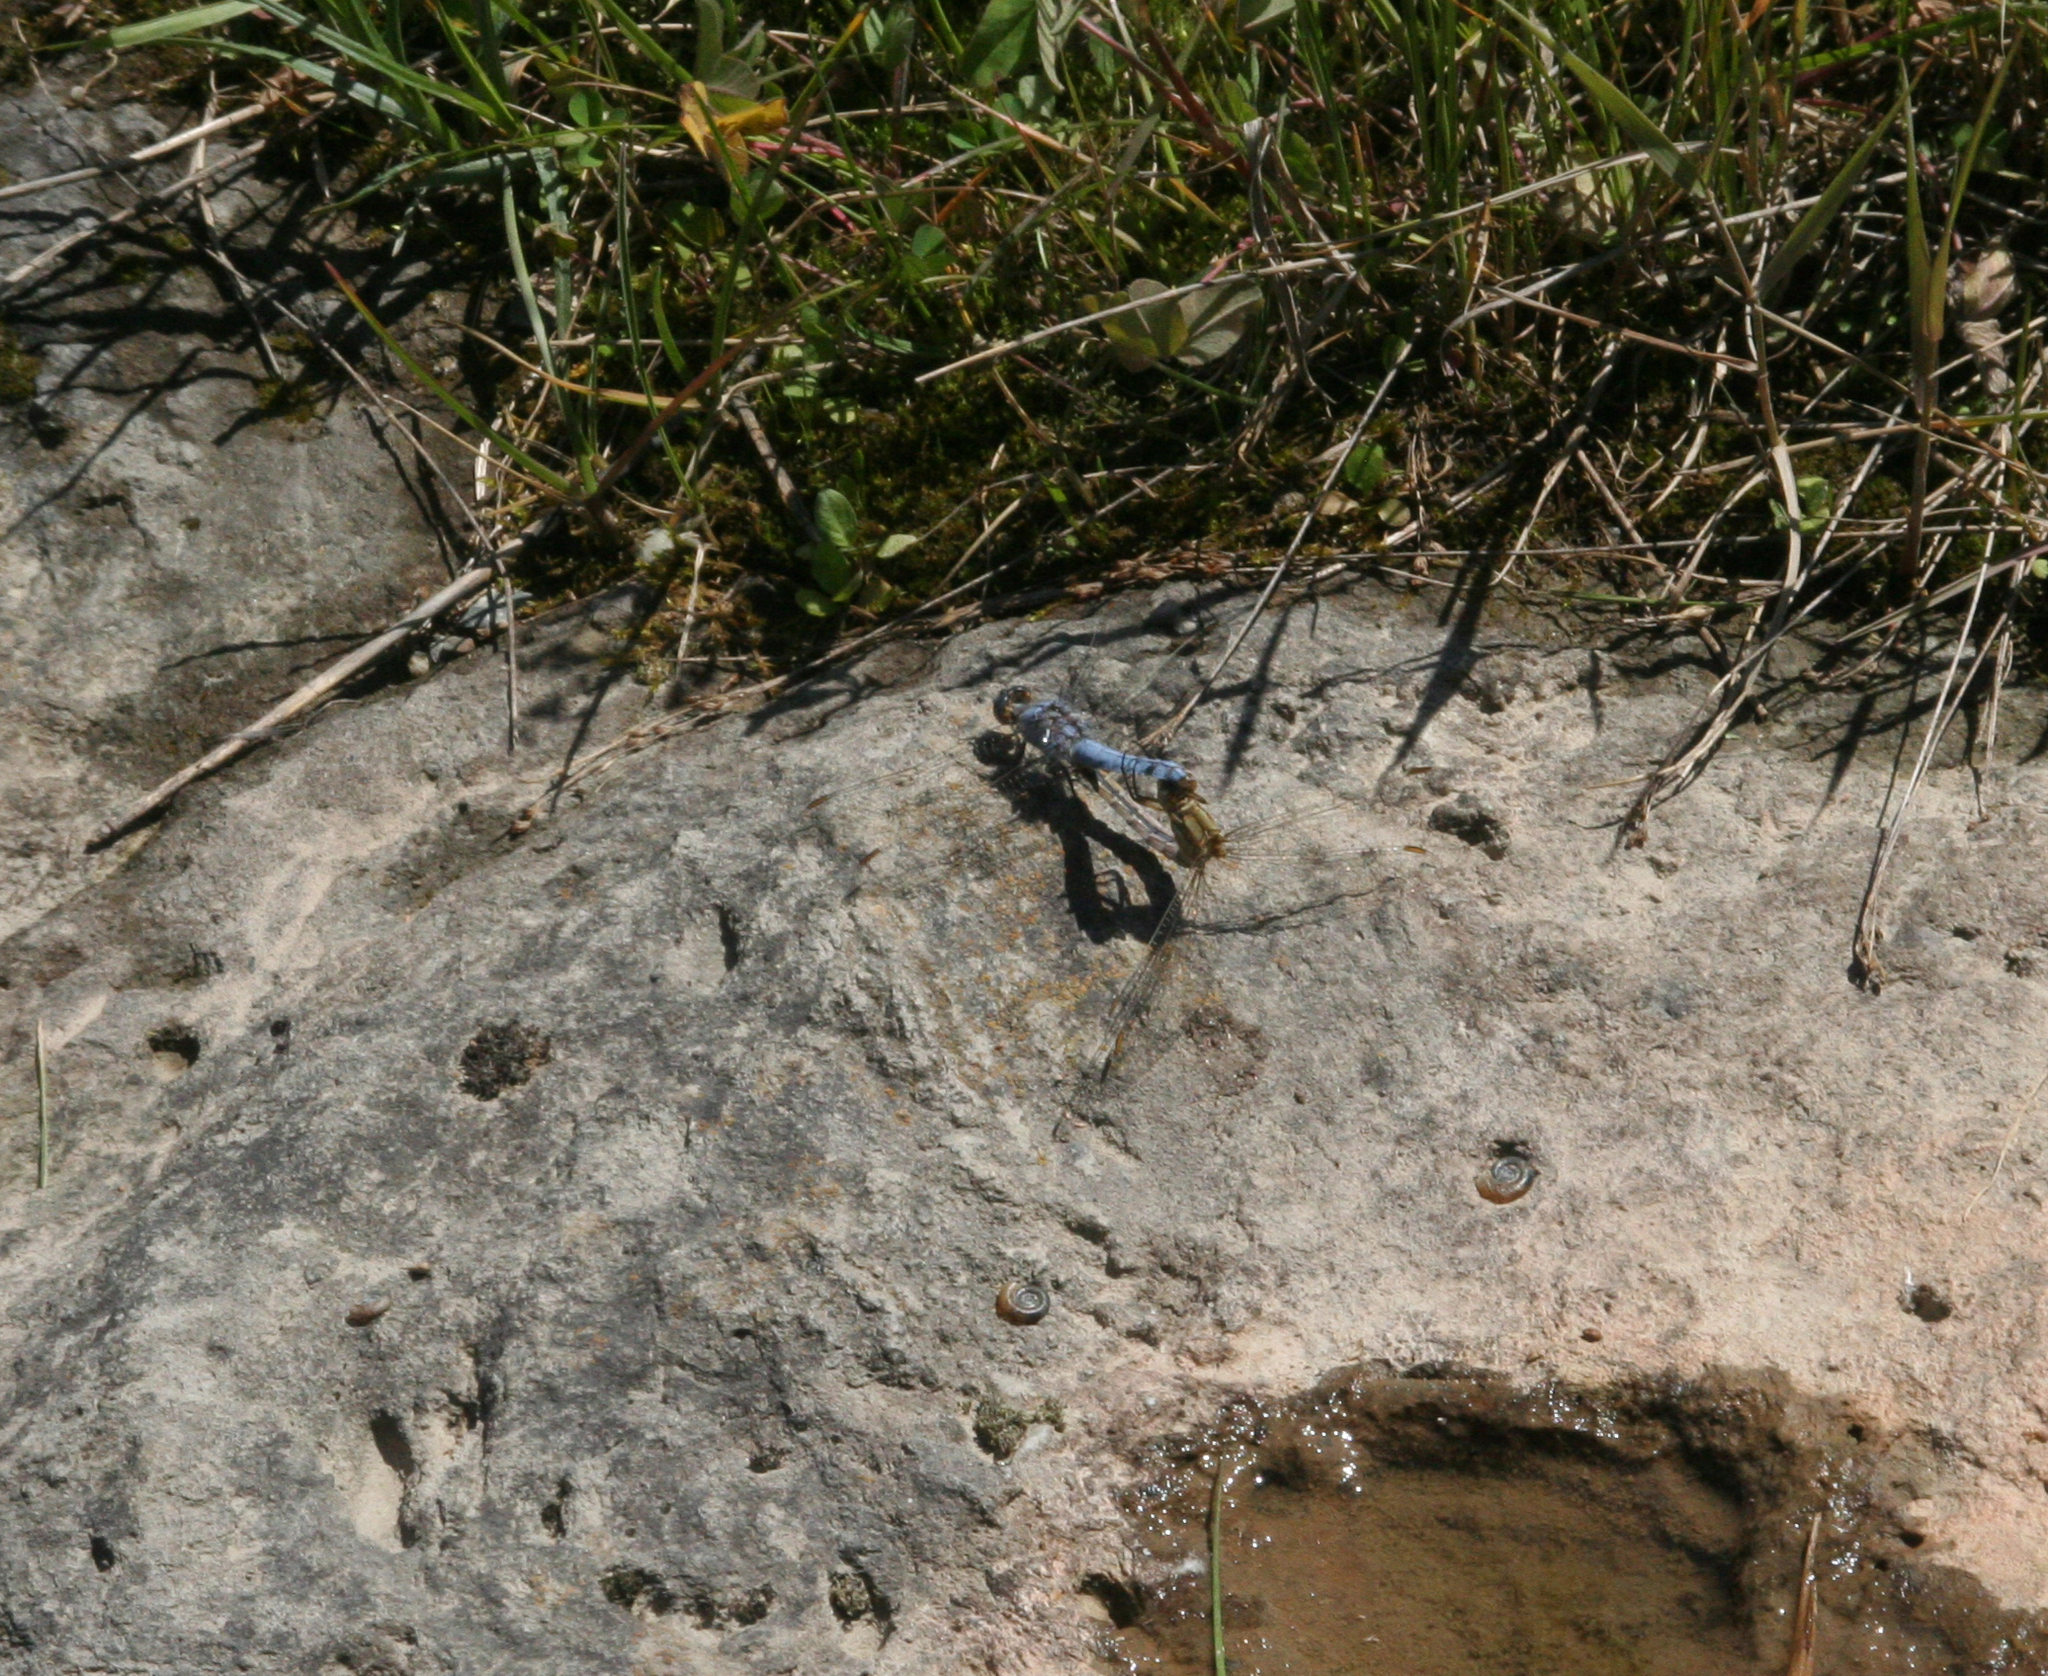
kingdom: Animalia
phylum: Arthropoda
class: Insecta
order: Odonata
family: Libellulidae
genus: Orthetrum
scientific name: Orthetrum brunneum
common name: Southern skimmer
